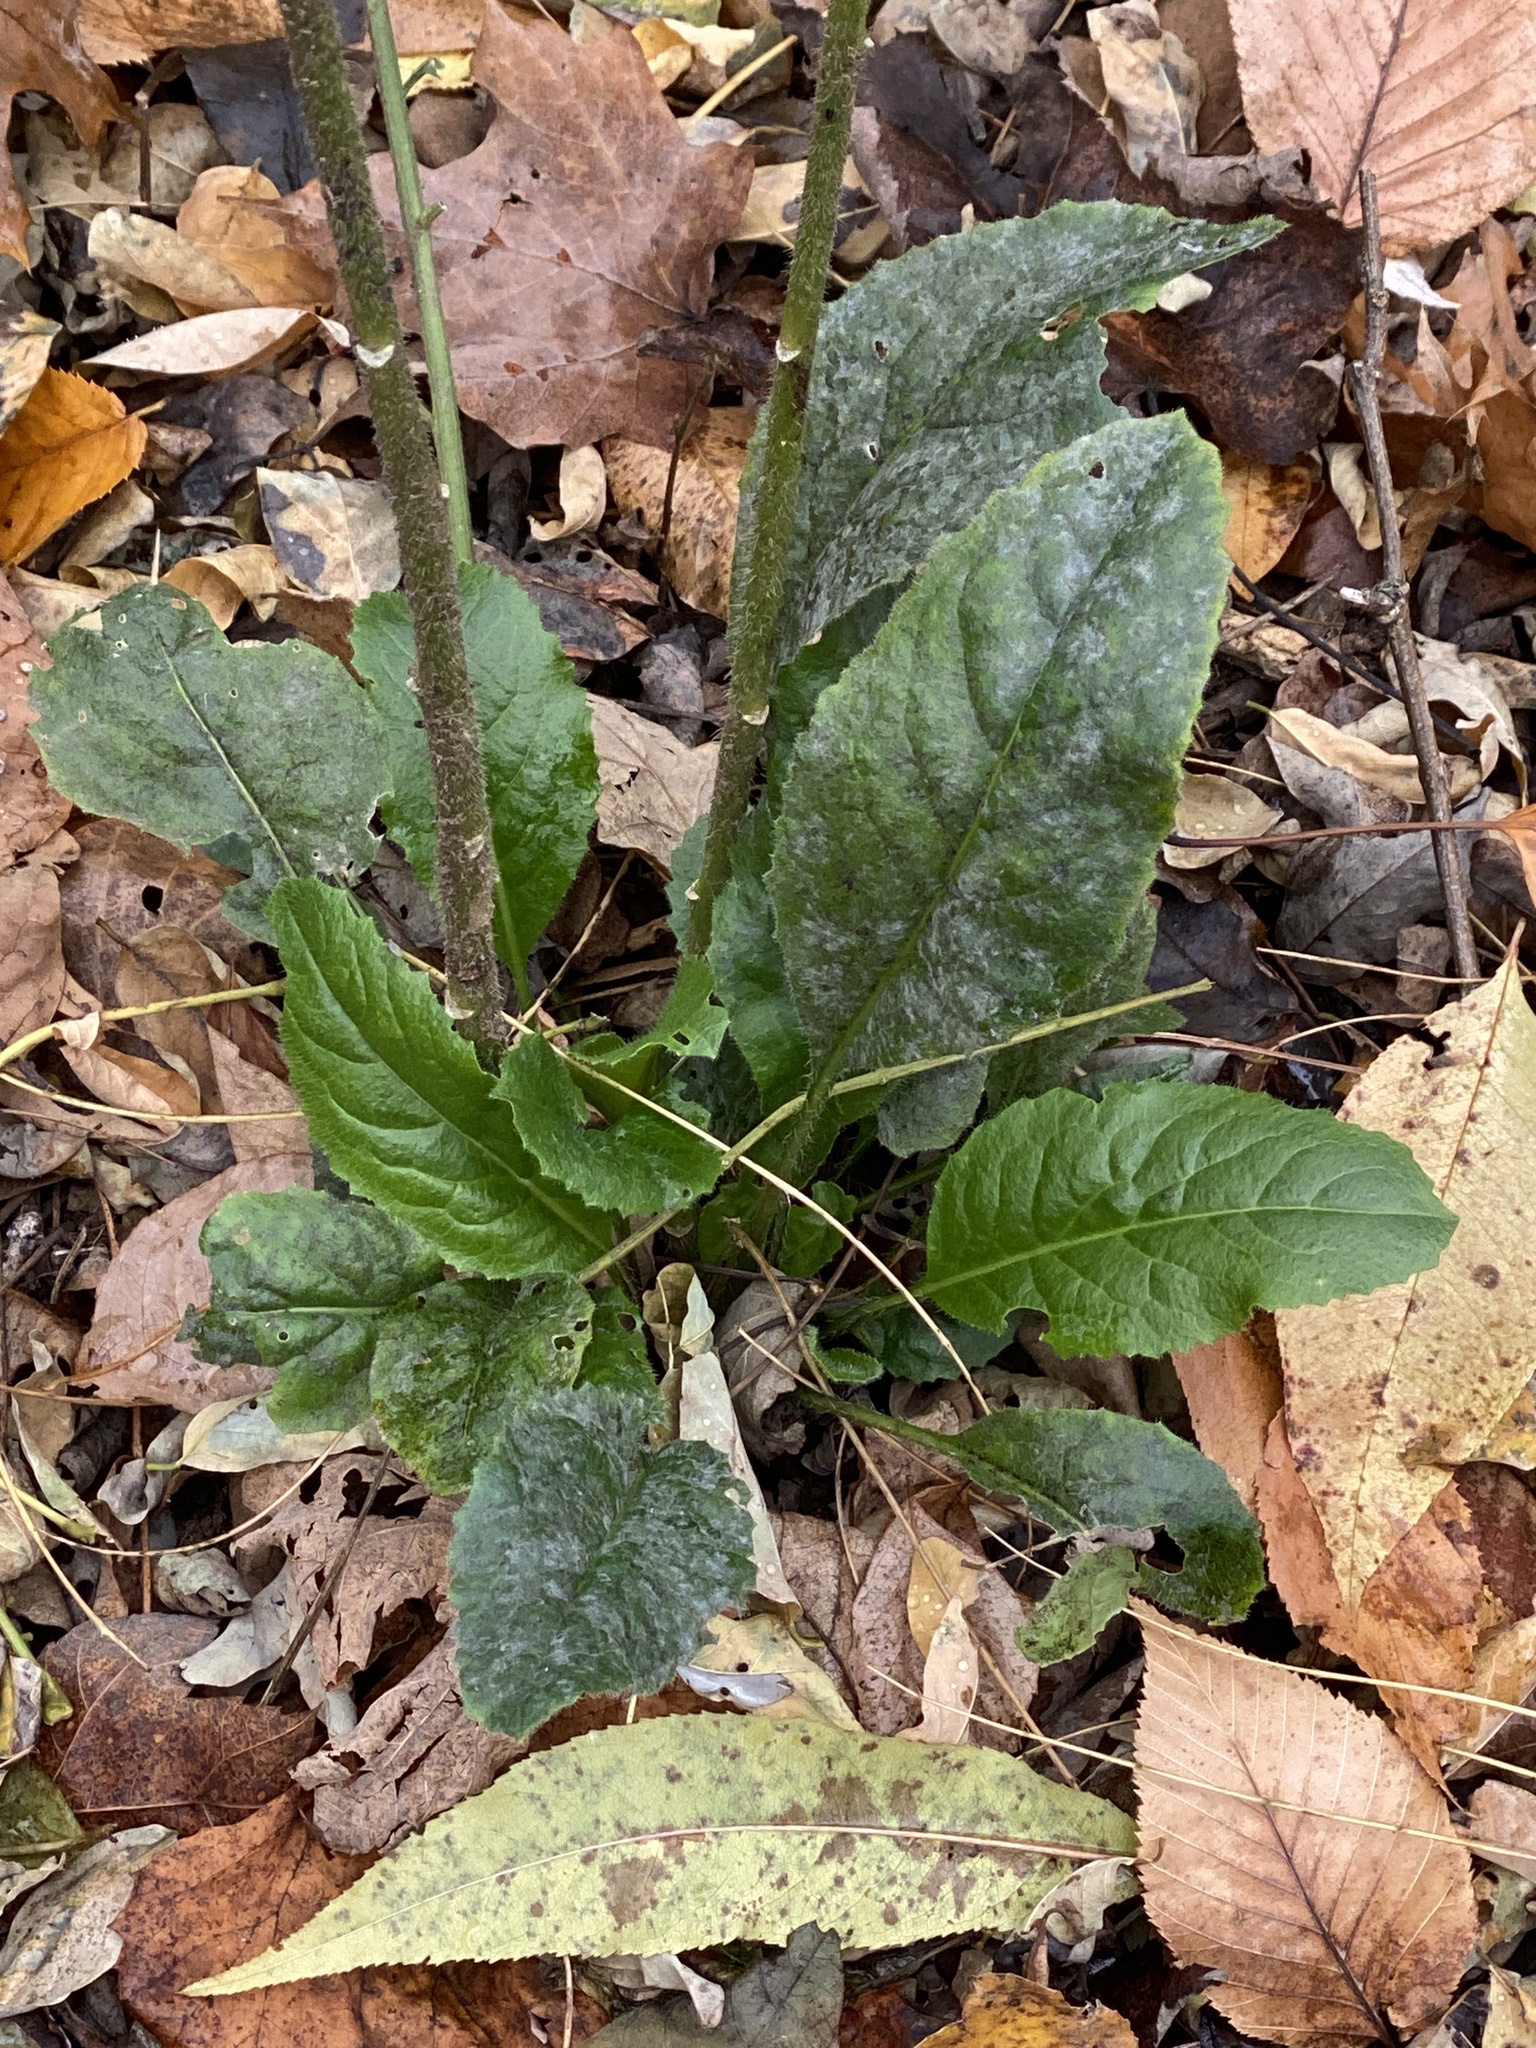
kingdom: Plantae
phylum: Tracheophyta
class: Magnoliopsida
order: Brassicales
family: Brassicaceae
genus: Hesperis
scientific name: Hesperis matronalis
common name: Dame's-violet
